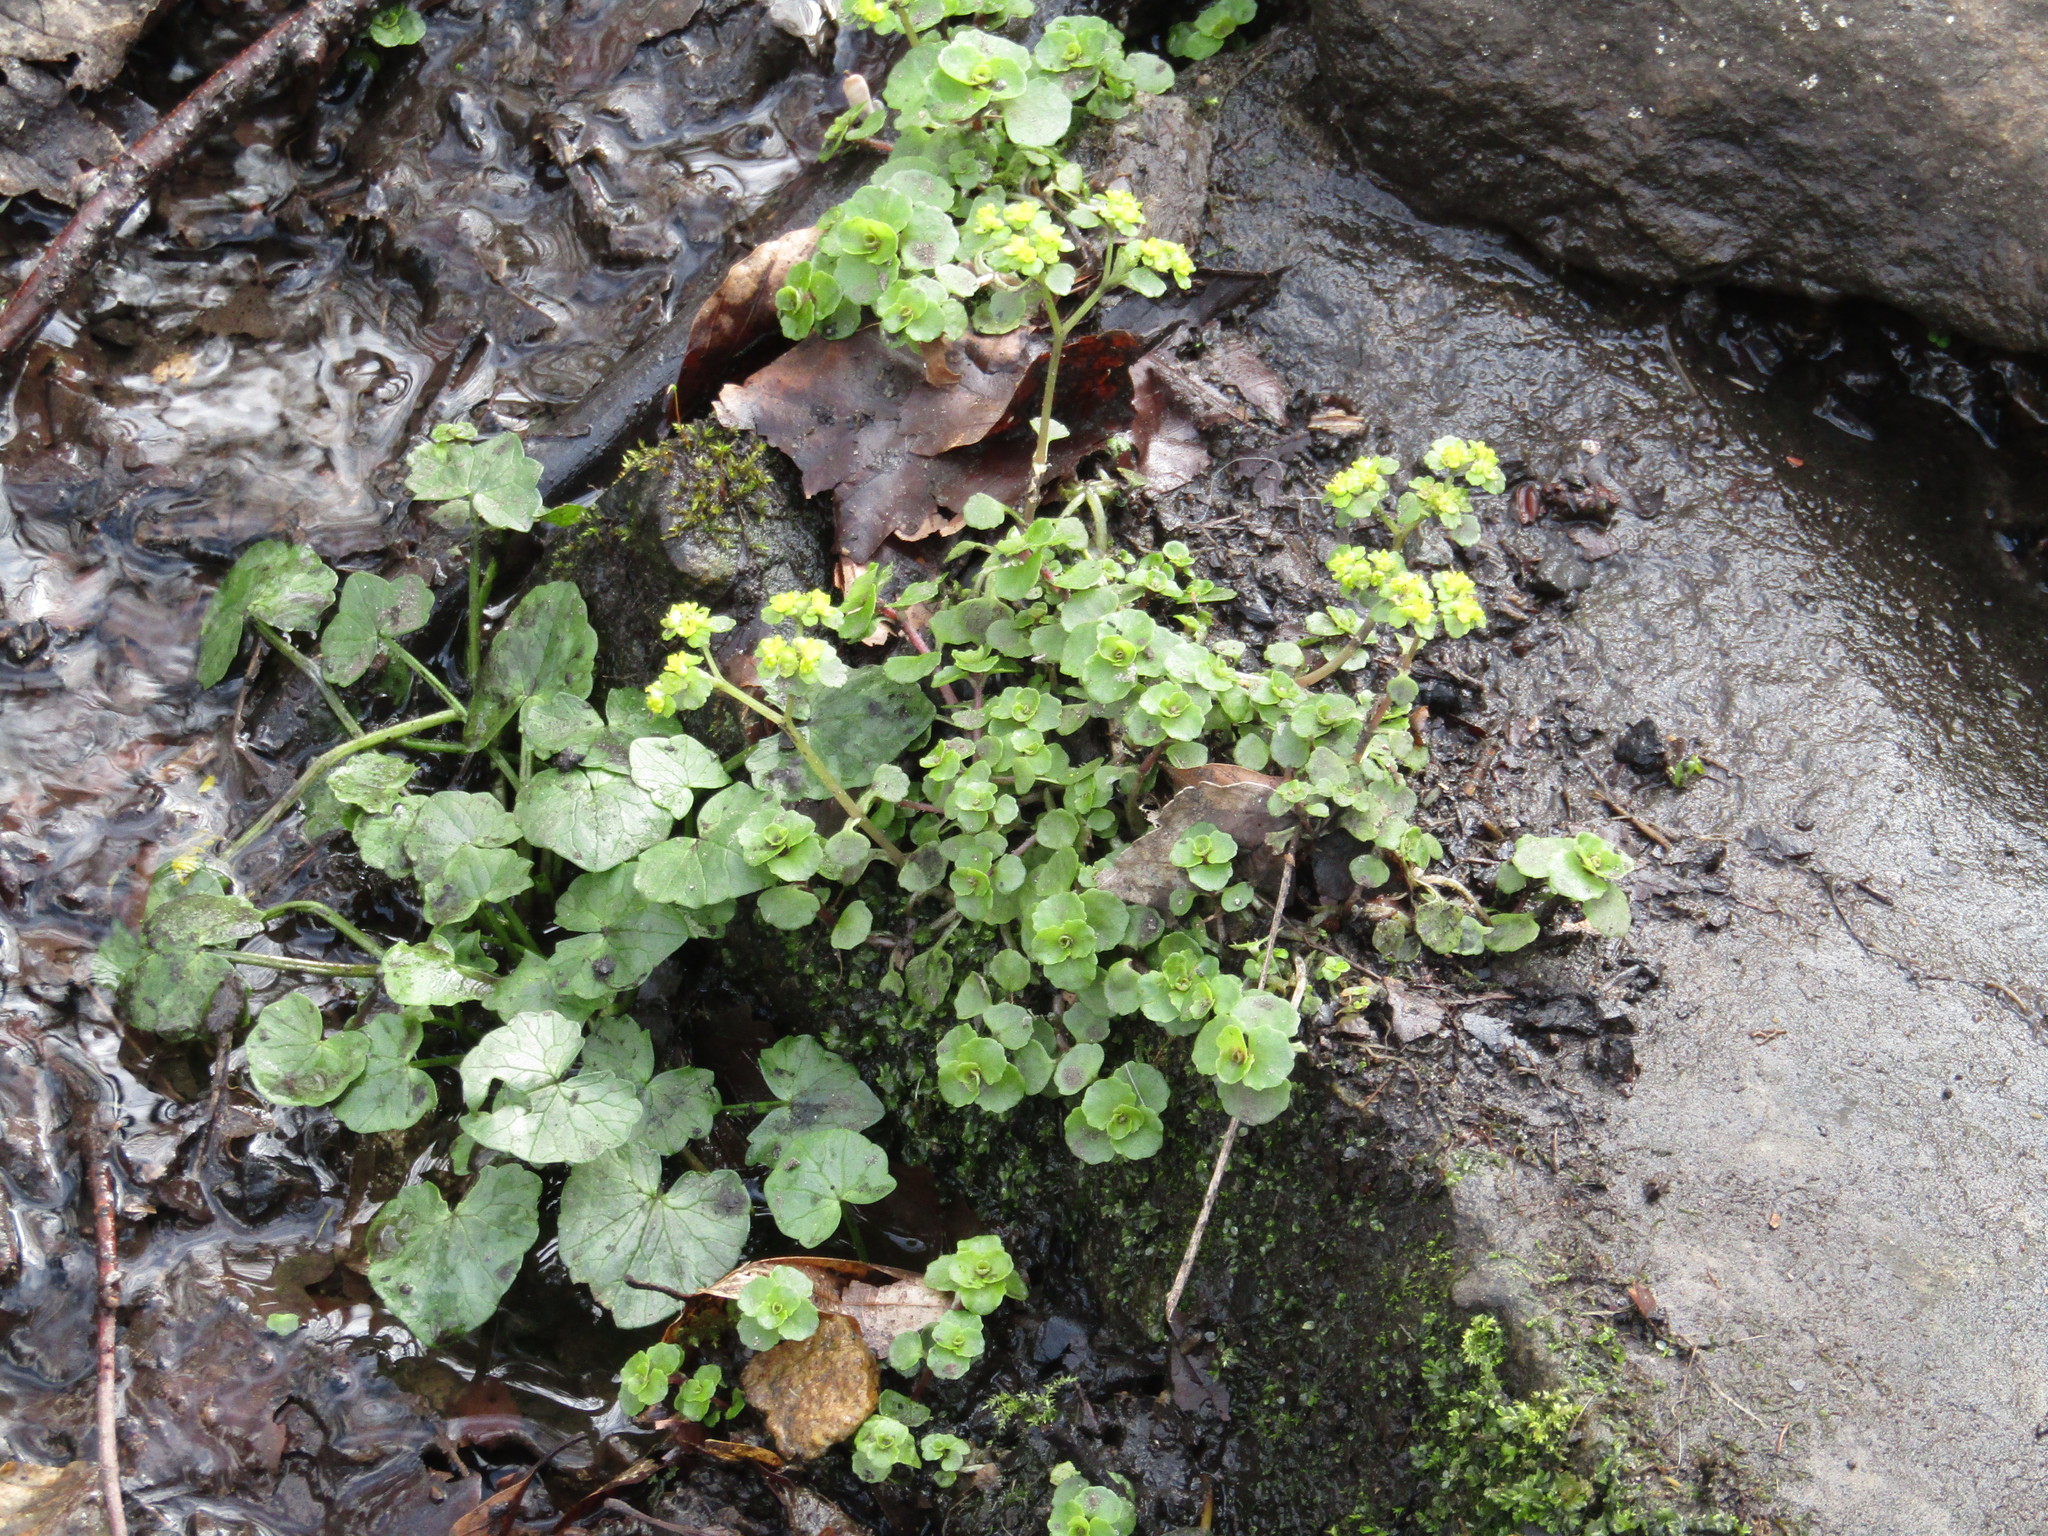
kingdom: Plantae
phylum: Tracheophyta
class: Magnoliopsida
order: Saxifragales
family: Saxifragaceae
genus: Chrysosplenium
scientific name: Chrysosplenium oppositifolium
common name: Opposite-leaved golden-saxifrage
